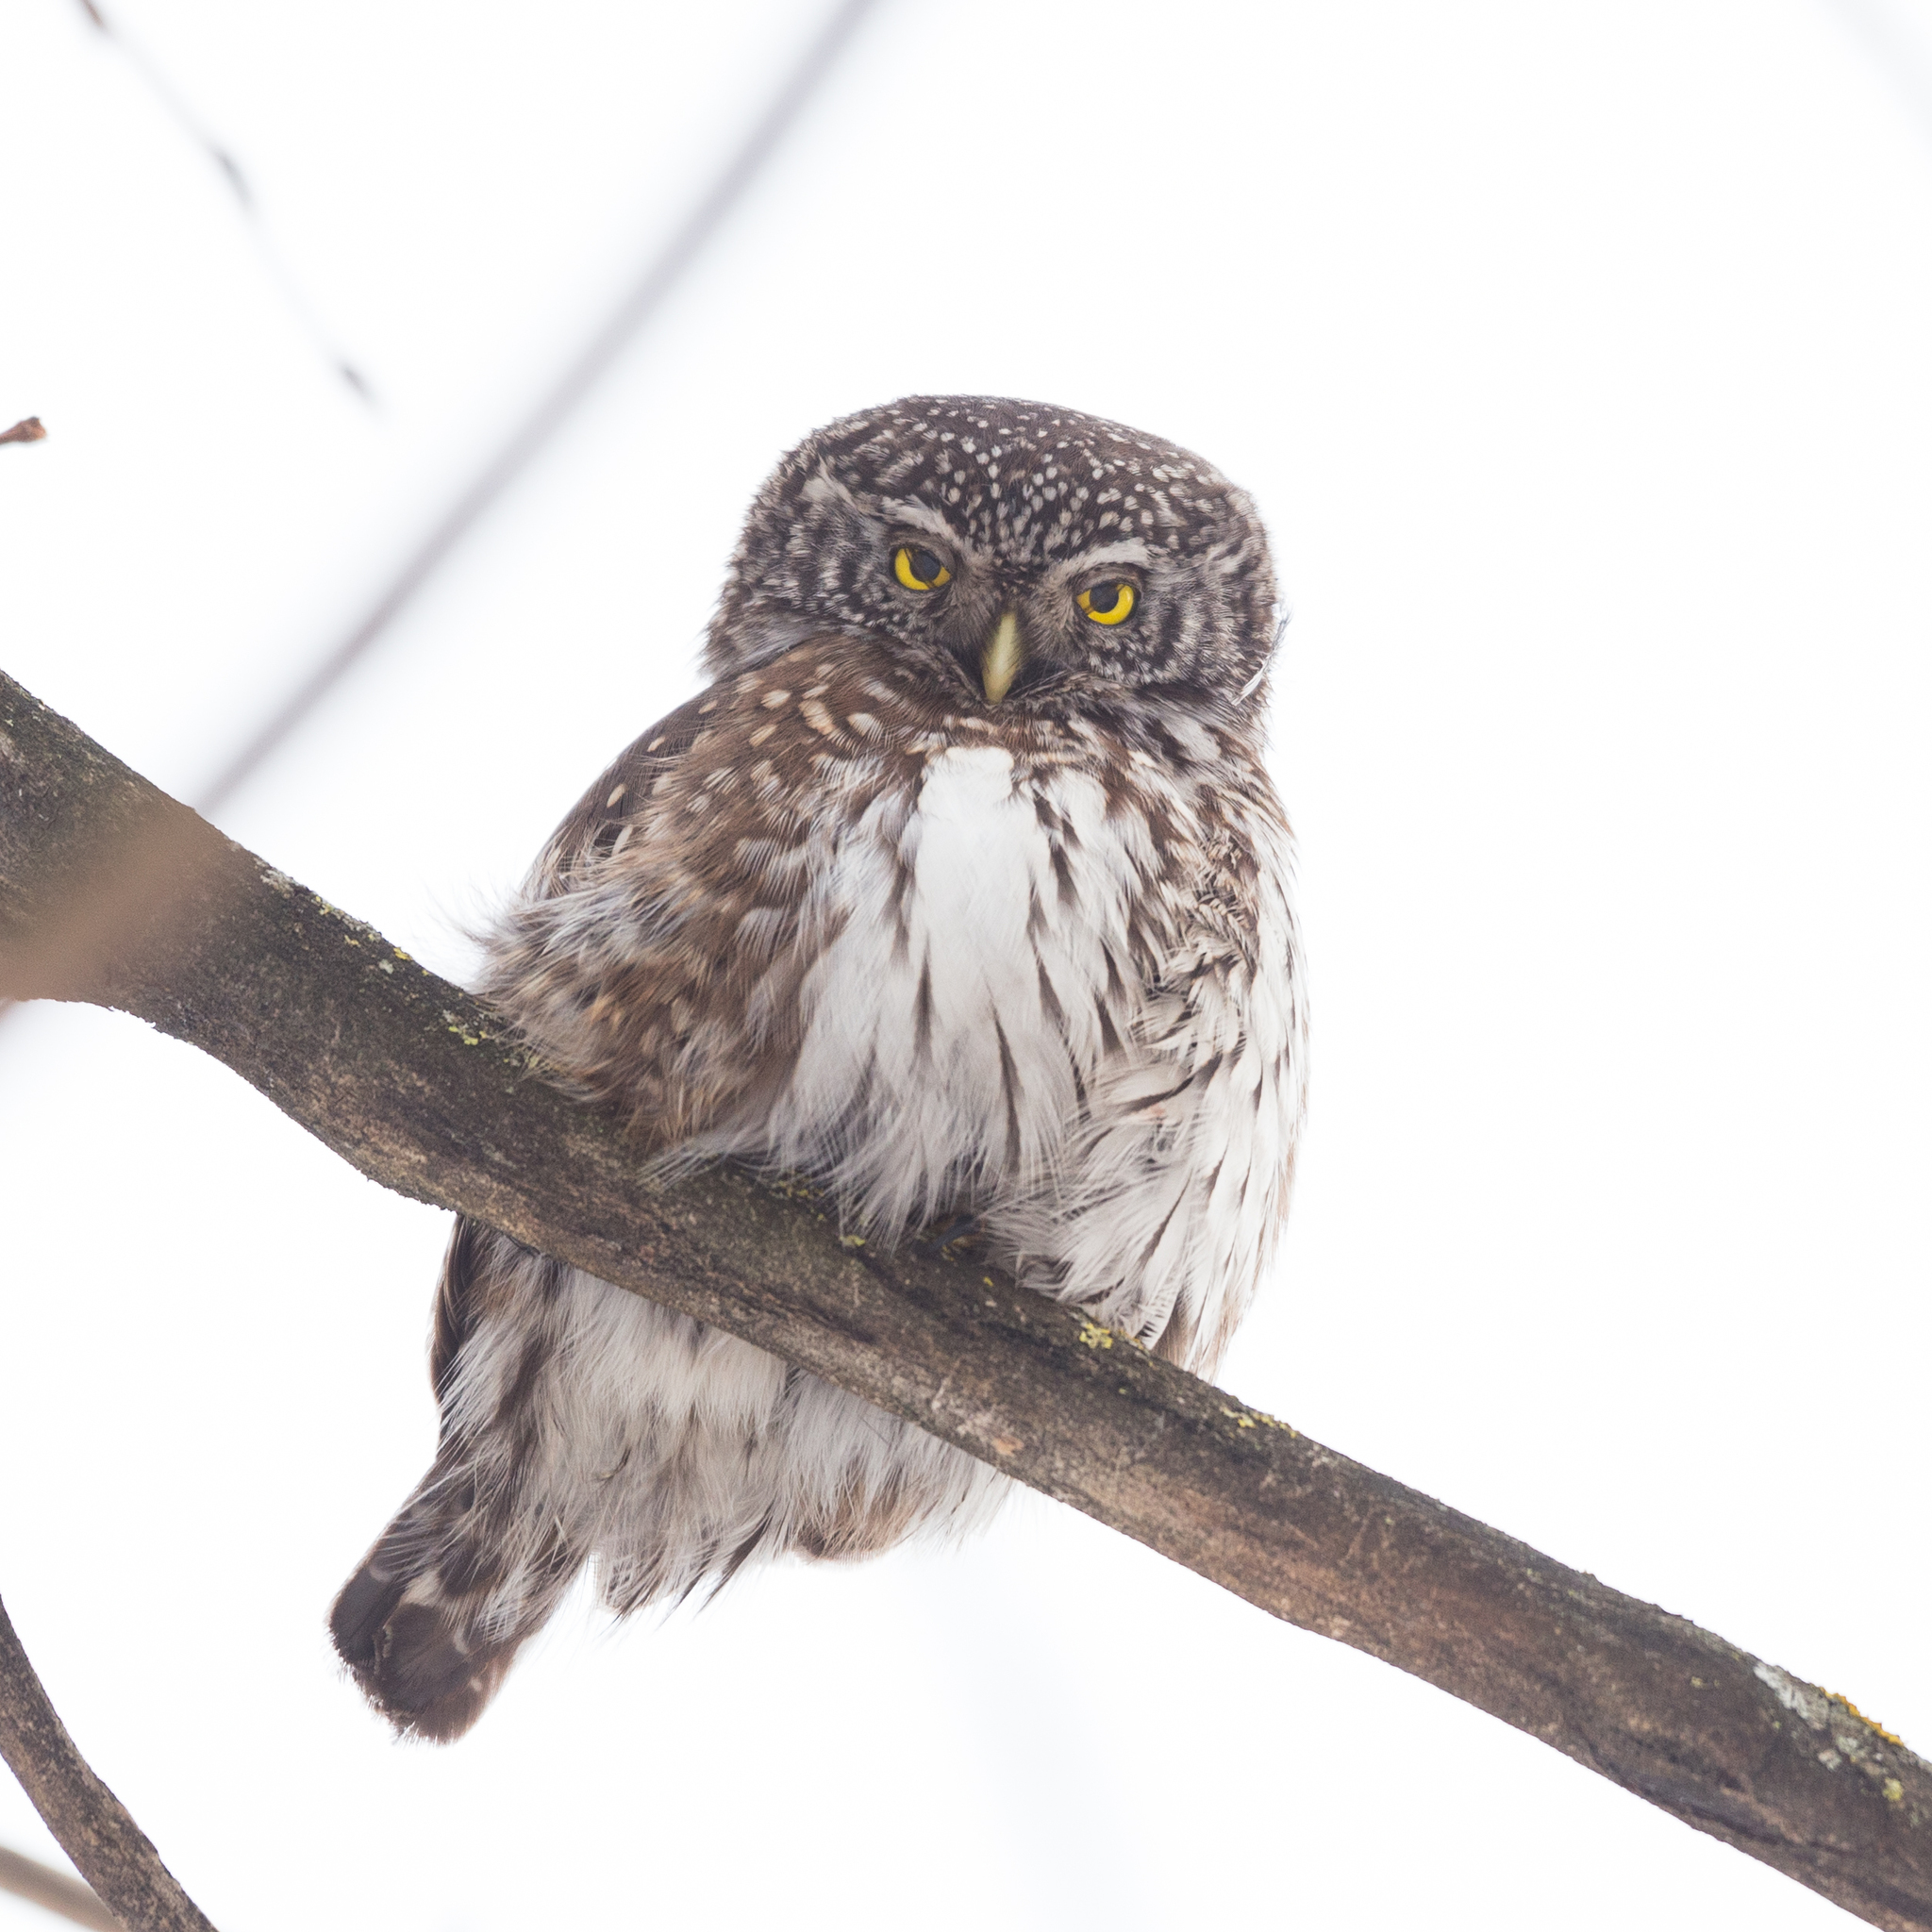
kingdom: Animalia
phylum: Chordata
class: Aves
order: Strigiformes
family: Strigidae
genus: Glaucidium
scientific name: Glaucidium passerinum
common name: Eurasian pygmy owl
